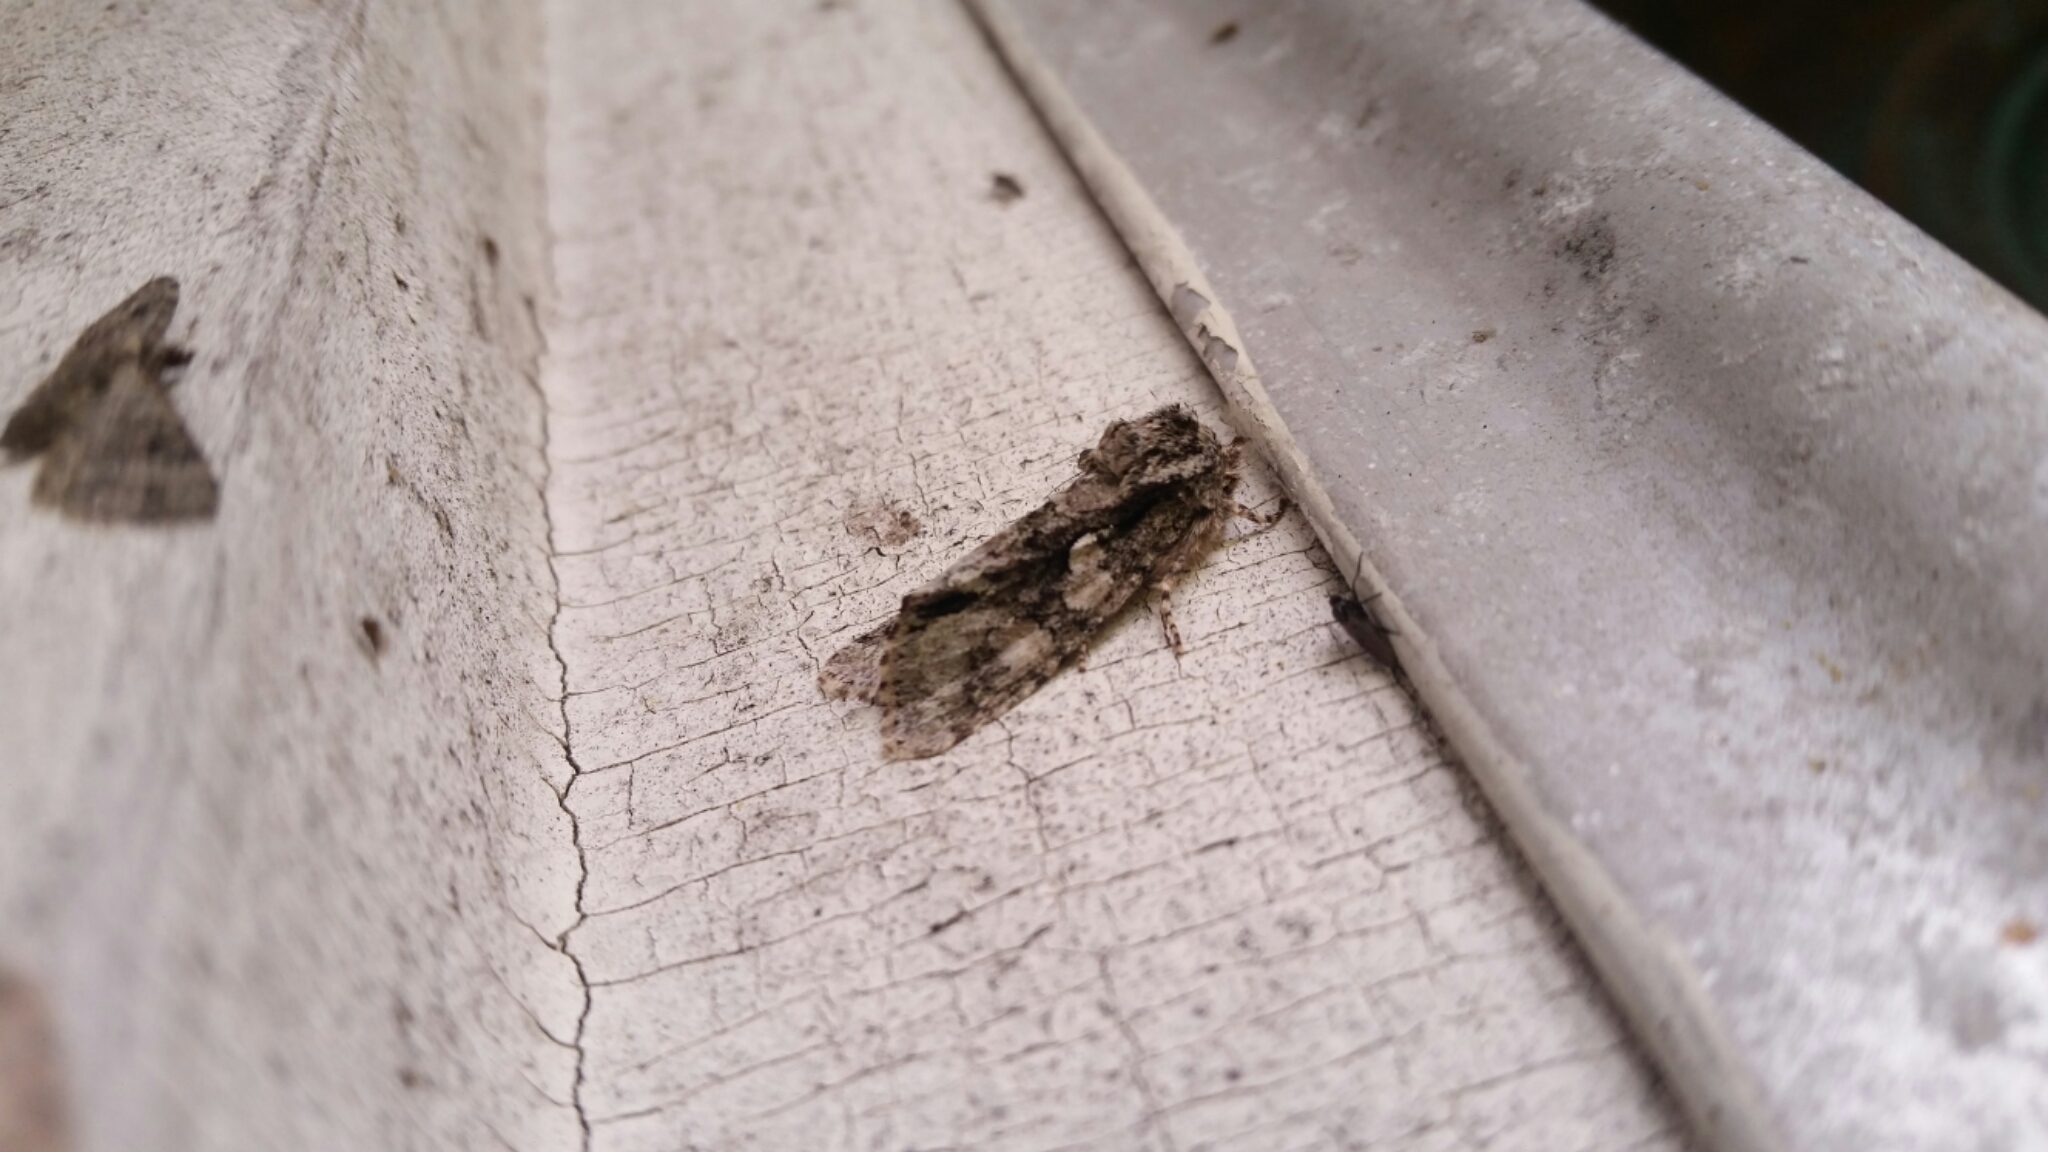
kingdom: Animalia
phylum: Arthropoda
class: Insecta
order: Lepidoptera
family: Noctuidae
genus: Psaphida
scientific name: Psaphida resumens
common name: Figure-eight sallow
